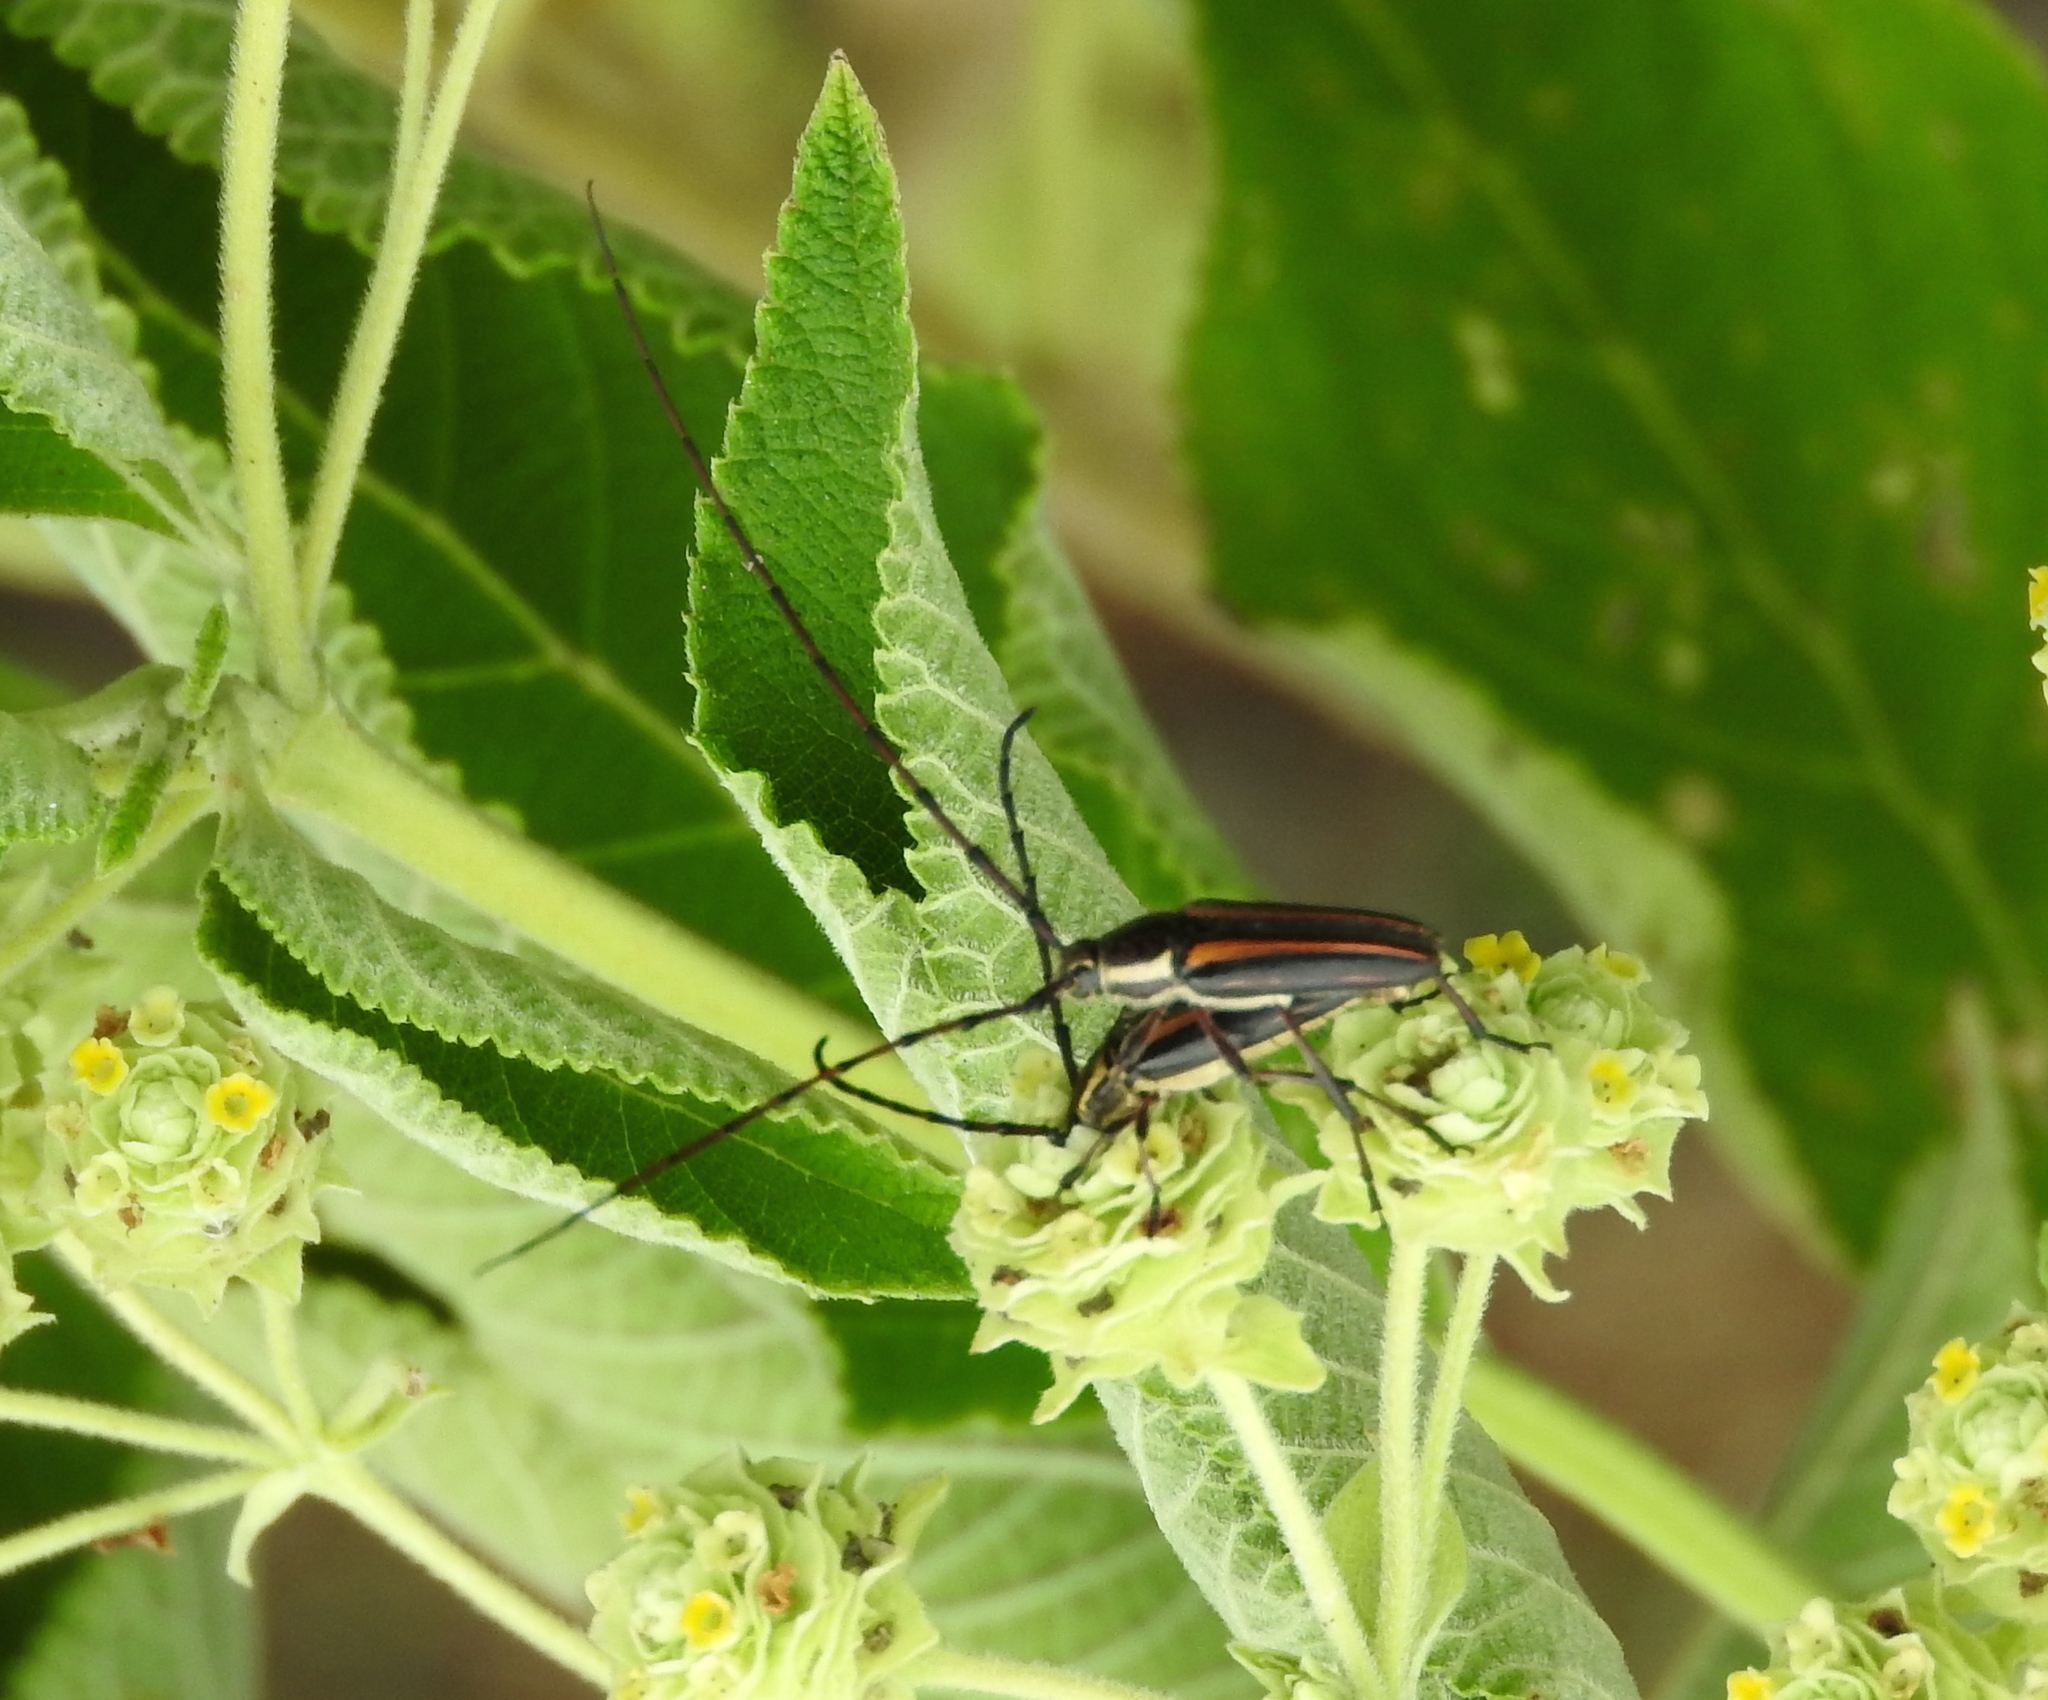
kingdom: Animalia
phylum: Arthropoda
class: Insecta
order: Coleoptera
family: Cerambycidae
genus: Sphaenothecus
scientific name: Sphaenothecus maccartyi
